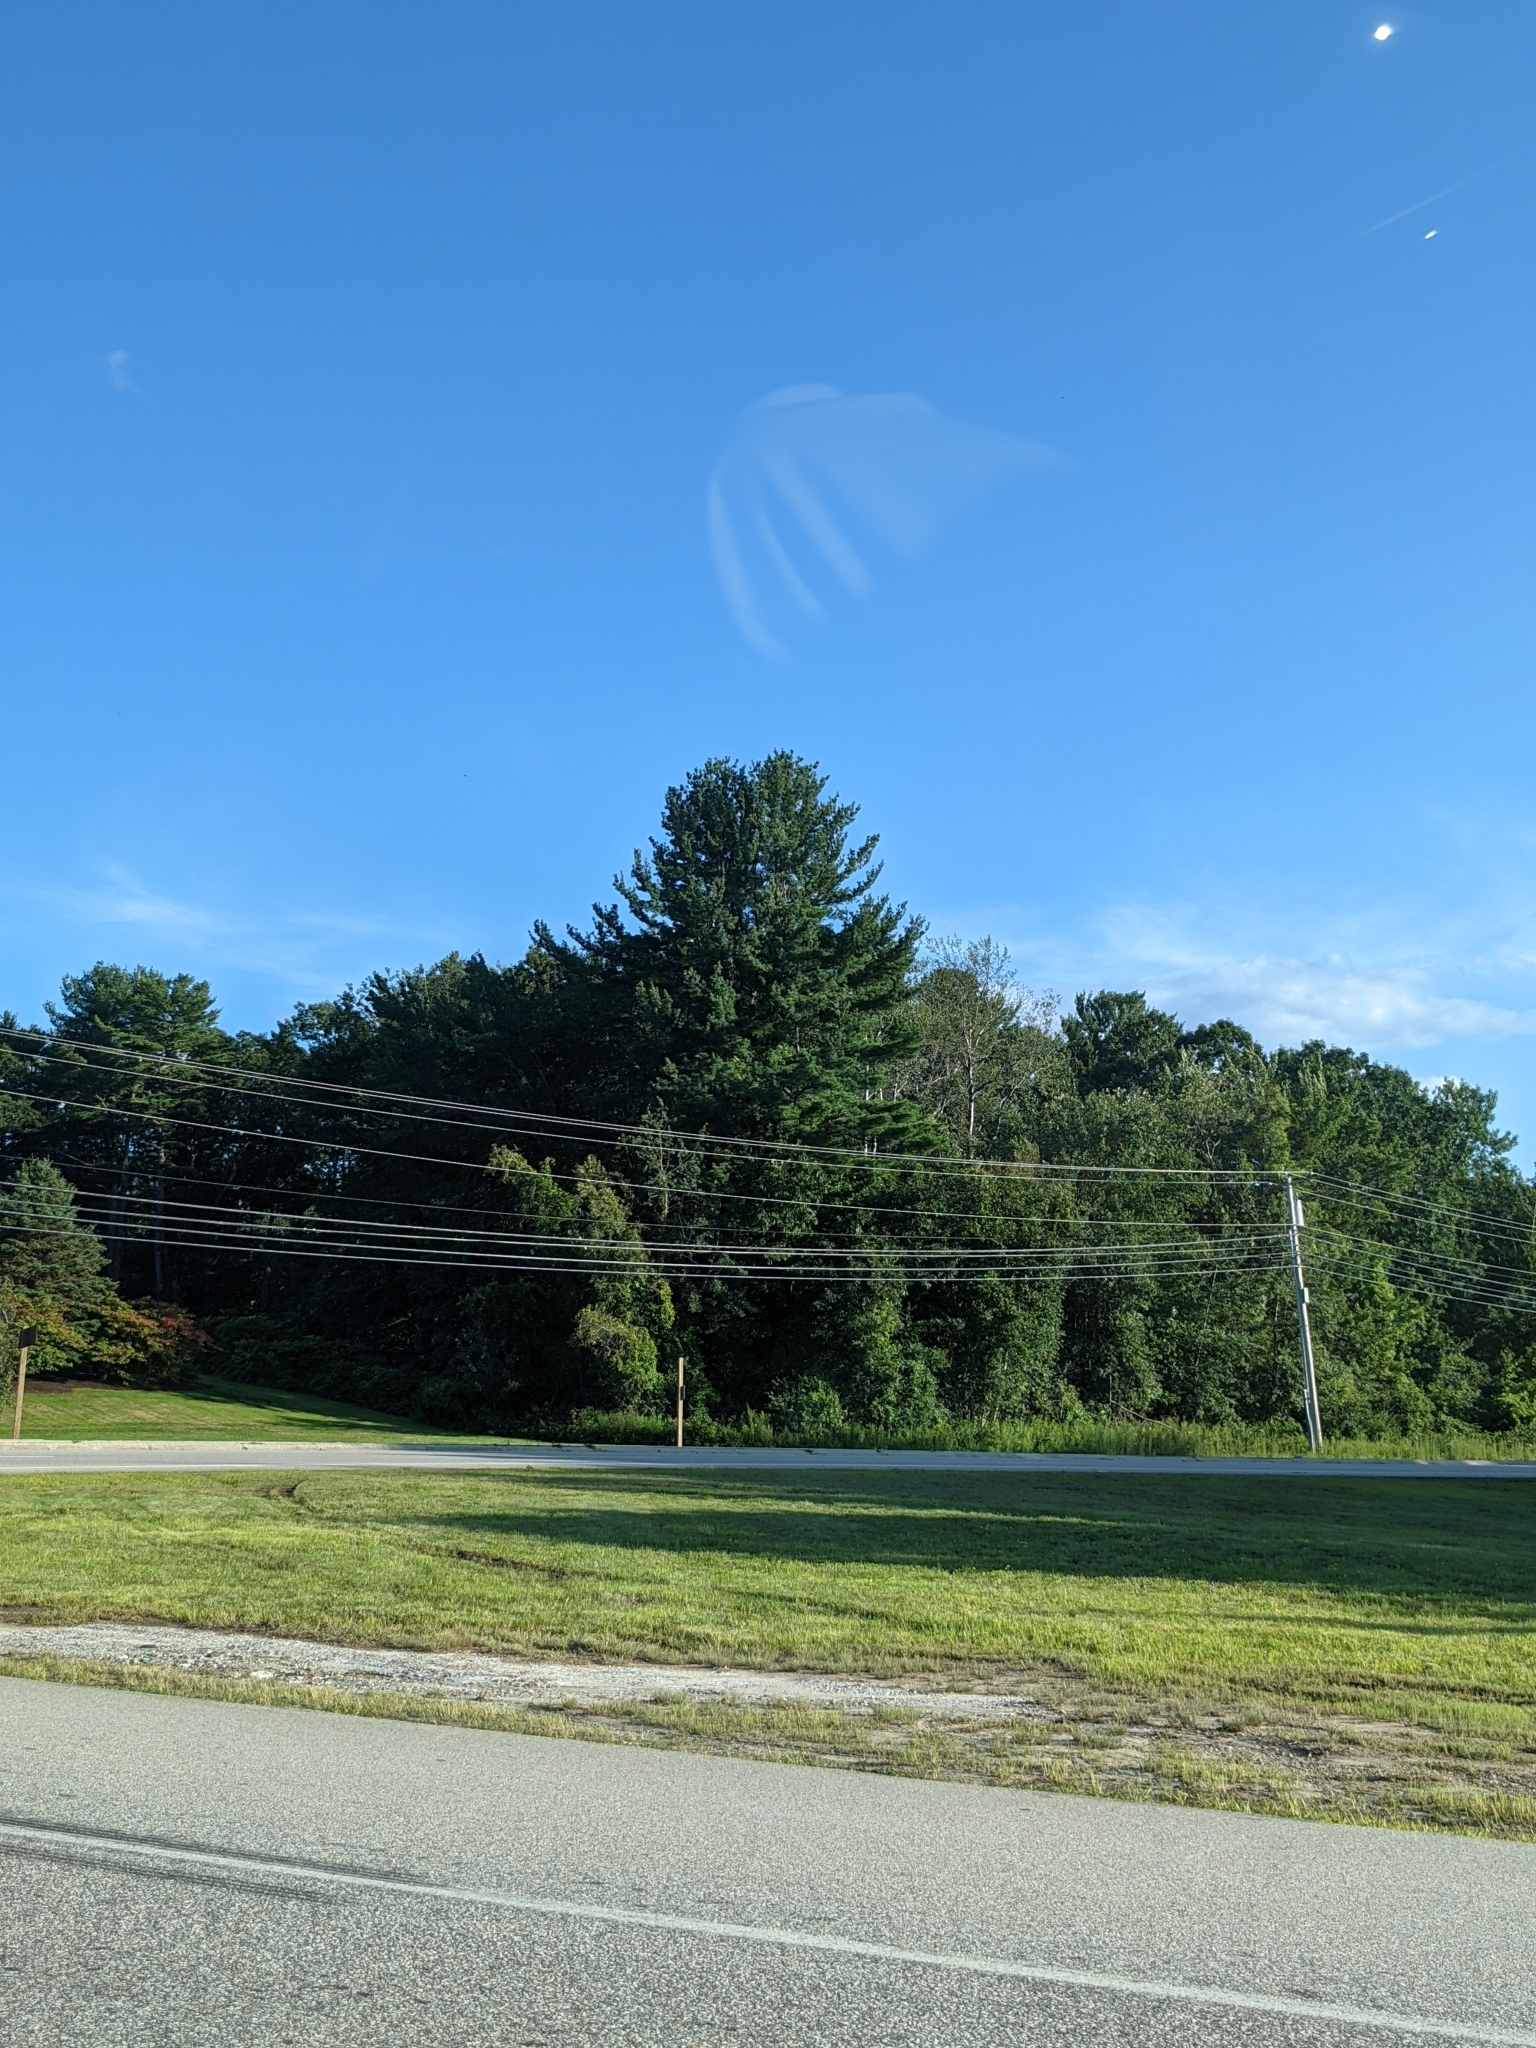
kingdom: Plantae
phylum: Tracheophyta
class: Pinopsida
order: Pinales
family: Pinaceae
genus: Pinus
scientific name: Pinus strobus
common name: Weymouth pine
